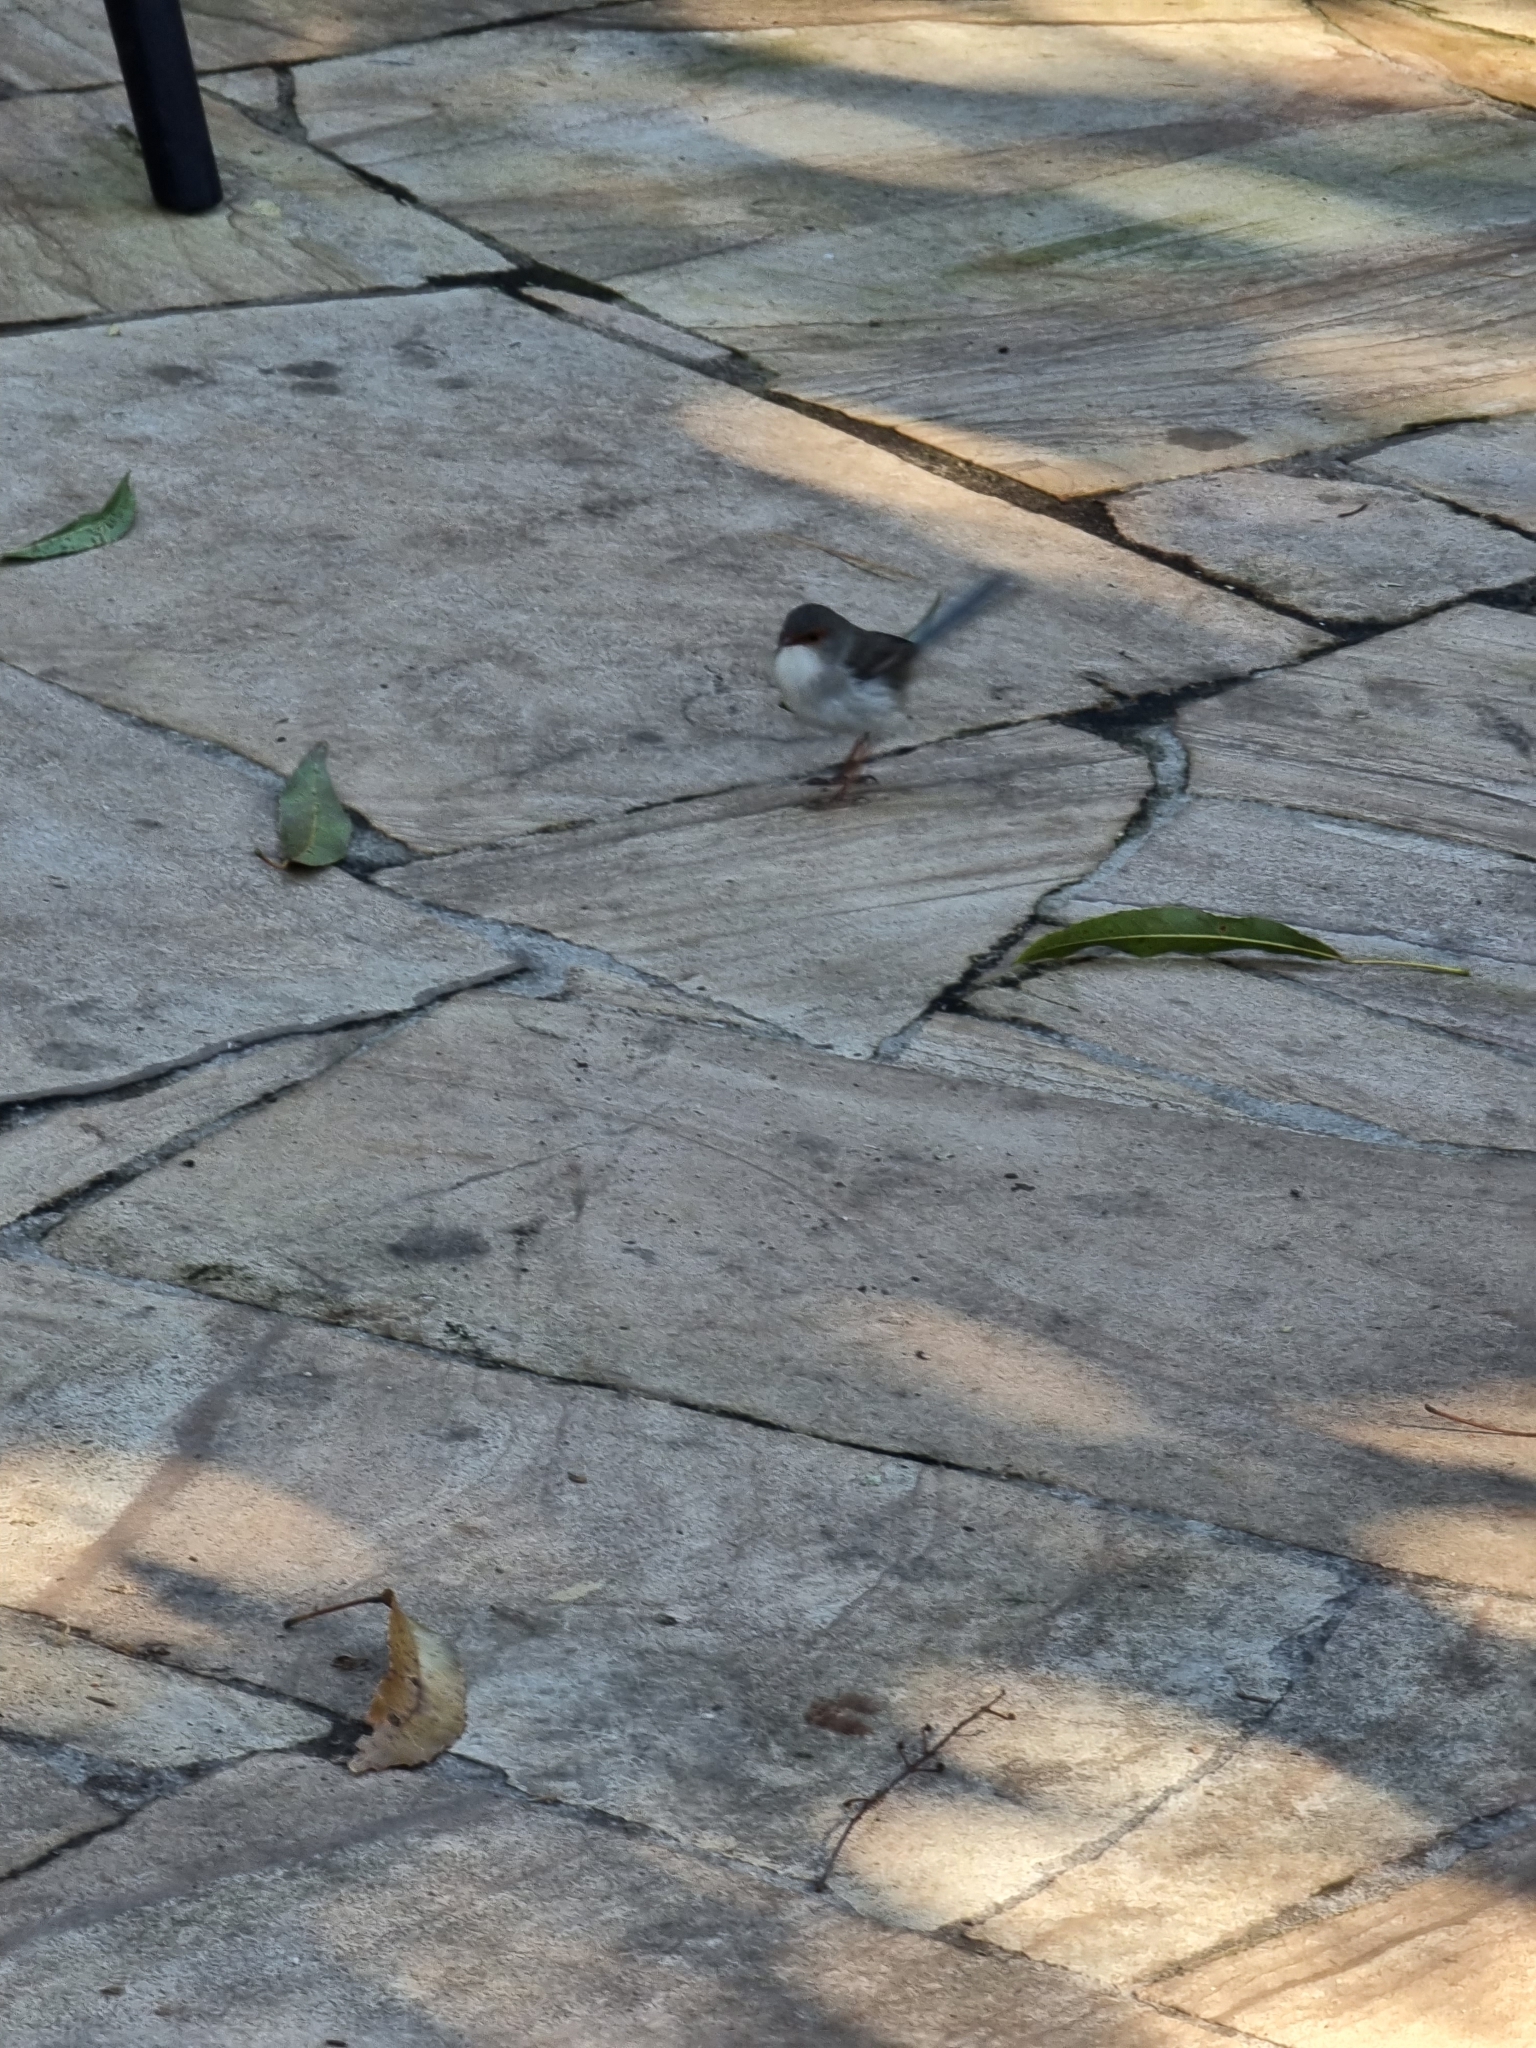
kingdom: Animalia
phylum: Chordata
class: Aves
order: Passeriformes
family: Maluridae
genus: Malurus
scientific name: Malurus cyaneus
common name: Superb fairywren
